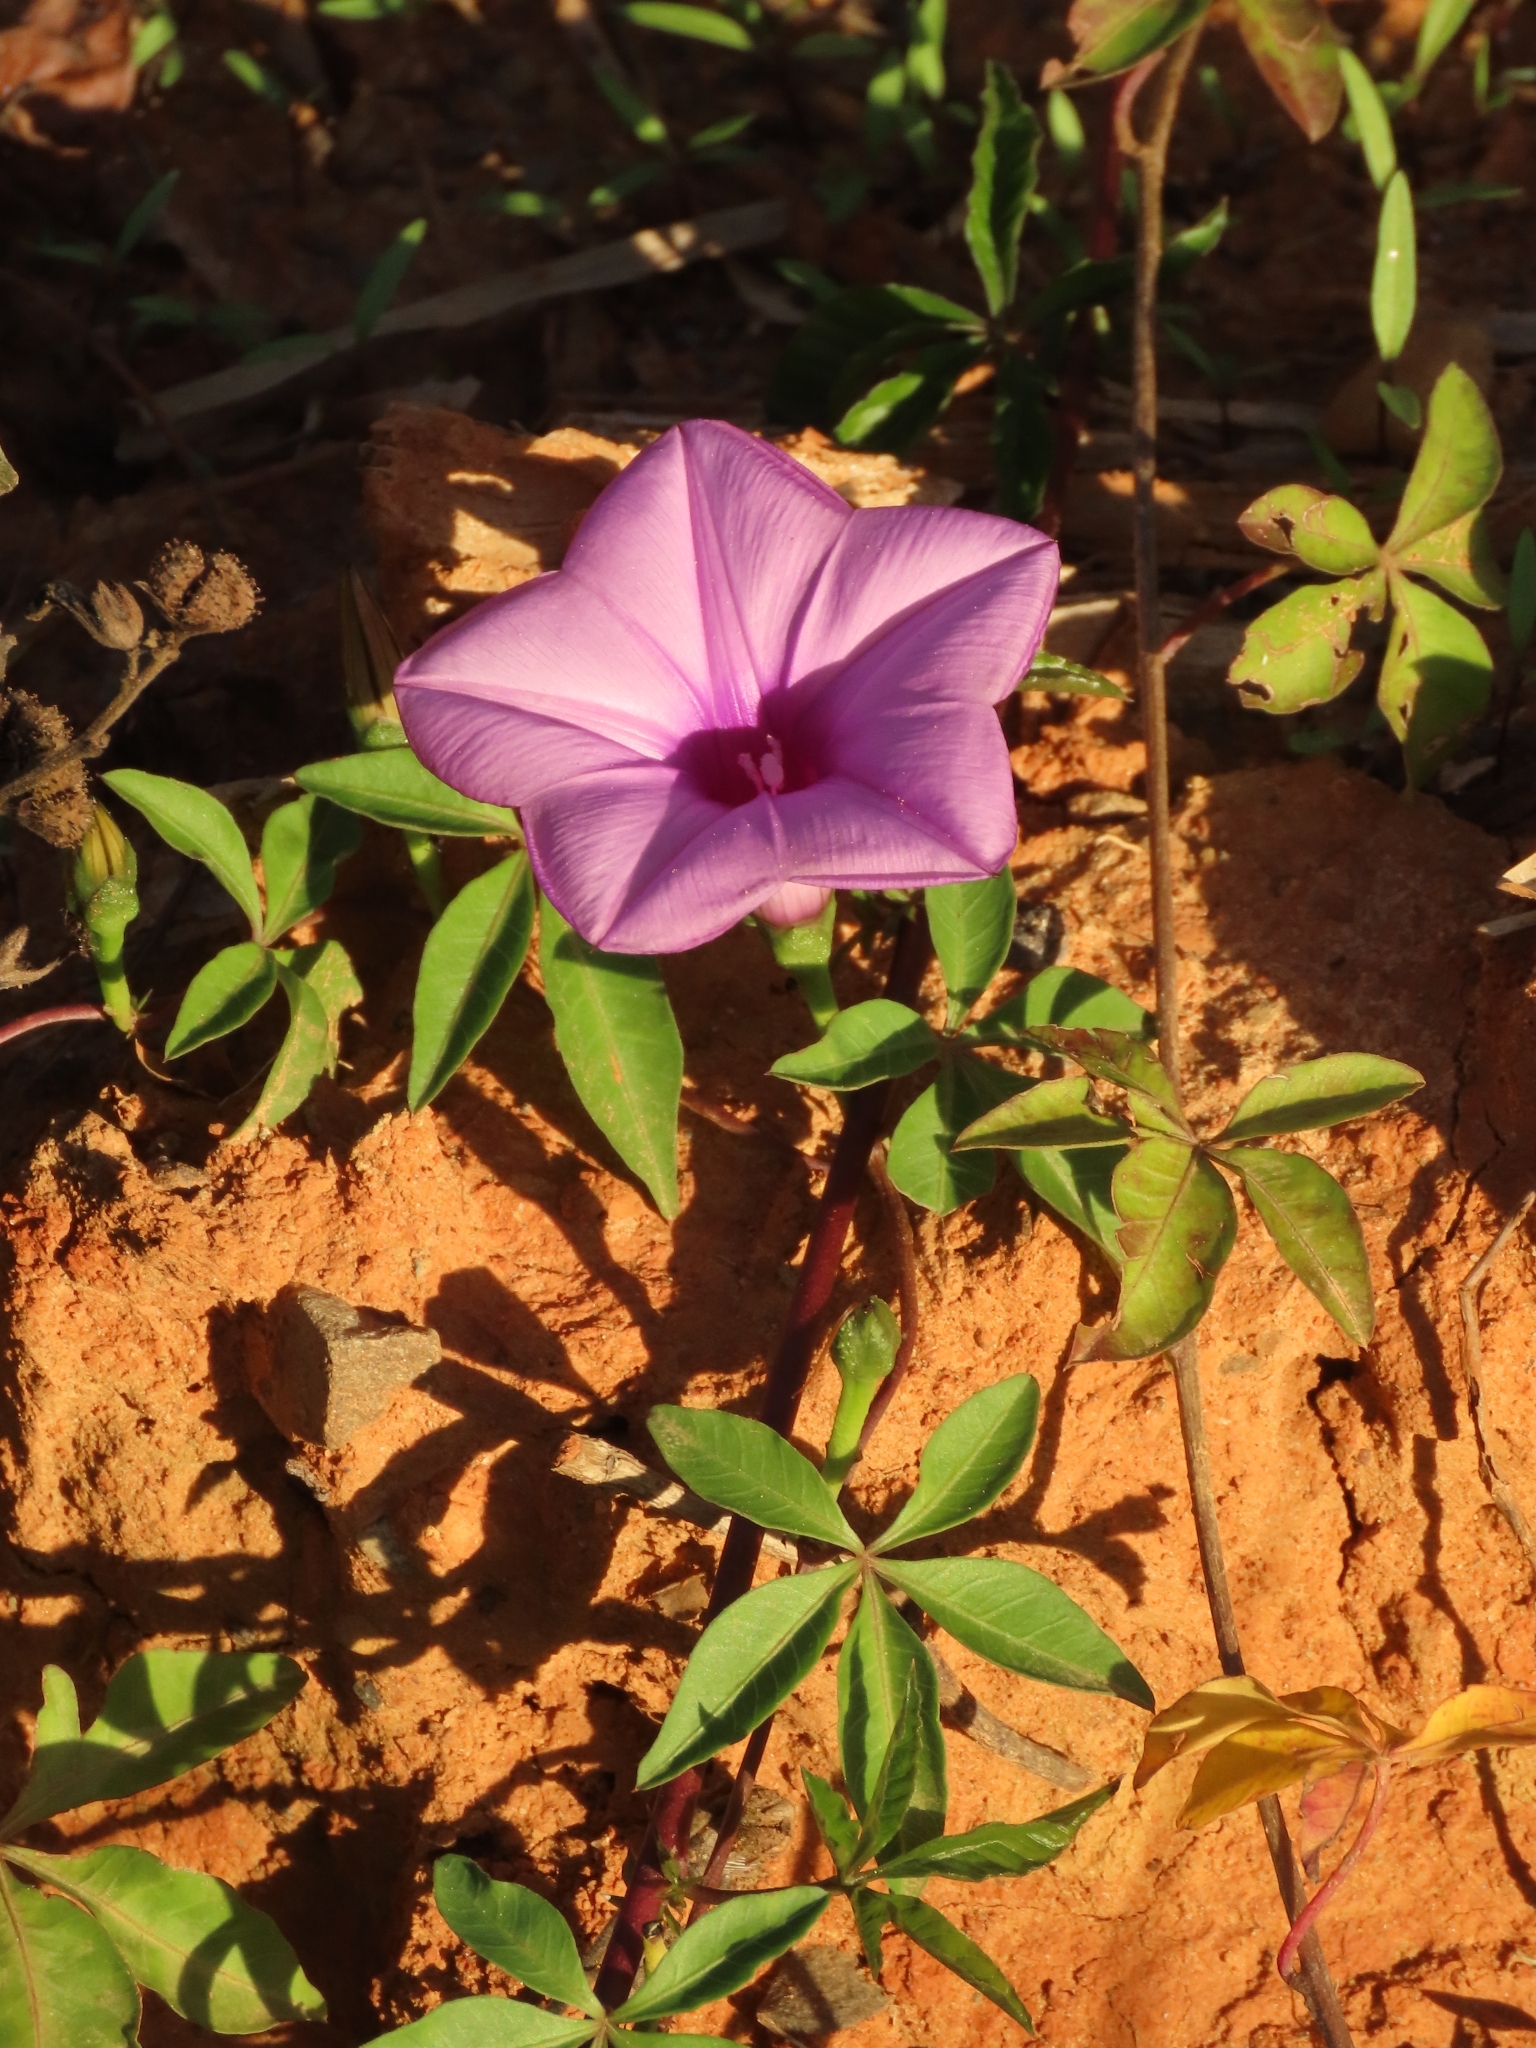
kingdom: Plantae
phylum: Tracheophyta
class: Magnoliopsida
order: Solanales
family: Convolvulaceae
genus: Ipomoea
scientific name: Ipomoea cairica
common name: Mile a minute vine
